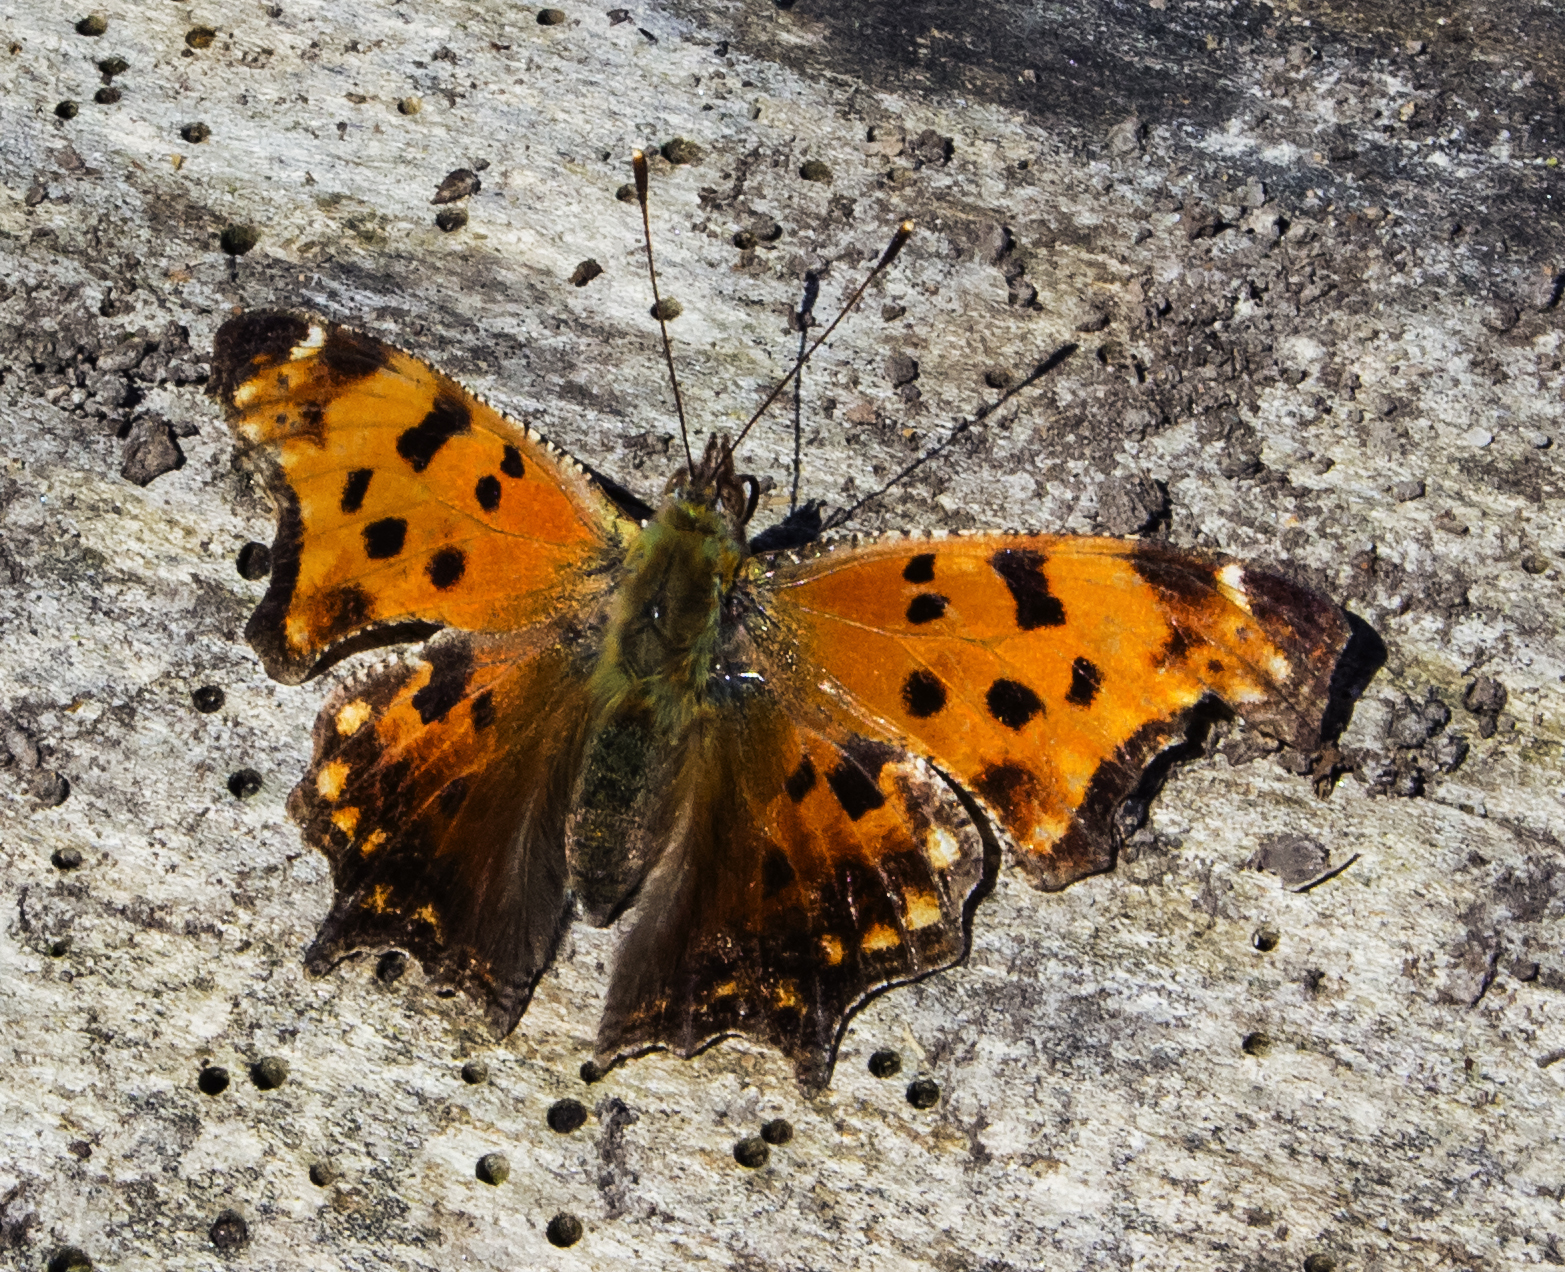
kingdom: Animalia
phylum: Arthropoda
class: Insecta
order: Lepidoptera
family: Nymphalidae
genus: Polygonia
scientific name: Polygonia comma
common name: Eastern comma
